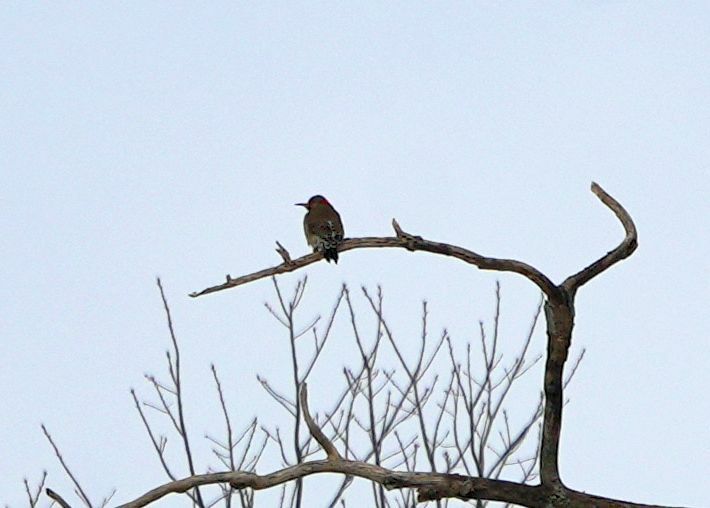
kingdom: Animalia
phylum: Chordata
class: Aves
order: Piciformes
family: Picidae
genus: Colaptes
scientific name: Colaptes auratus
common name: Northern flicker
